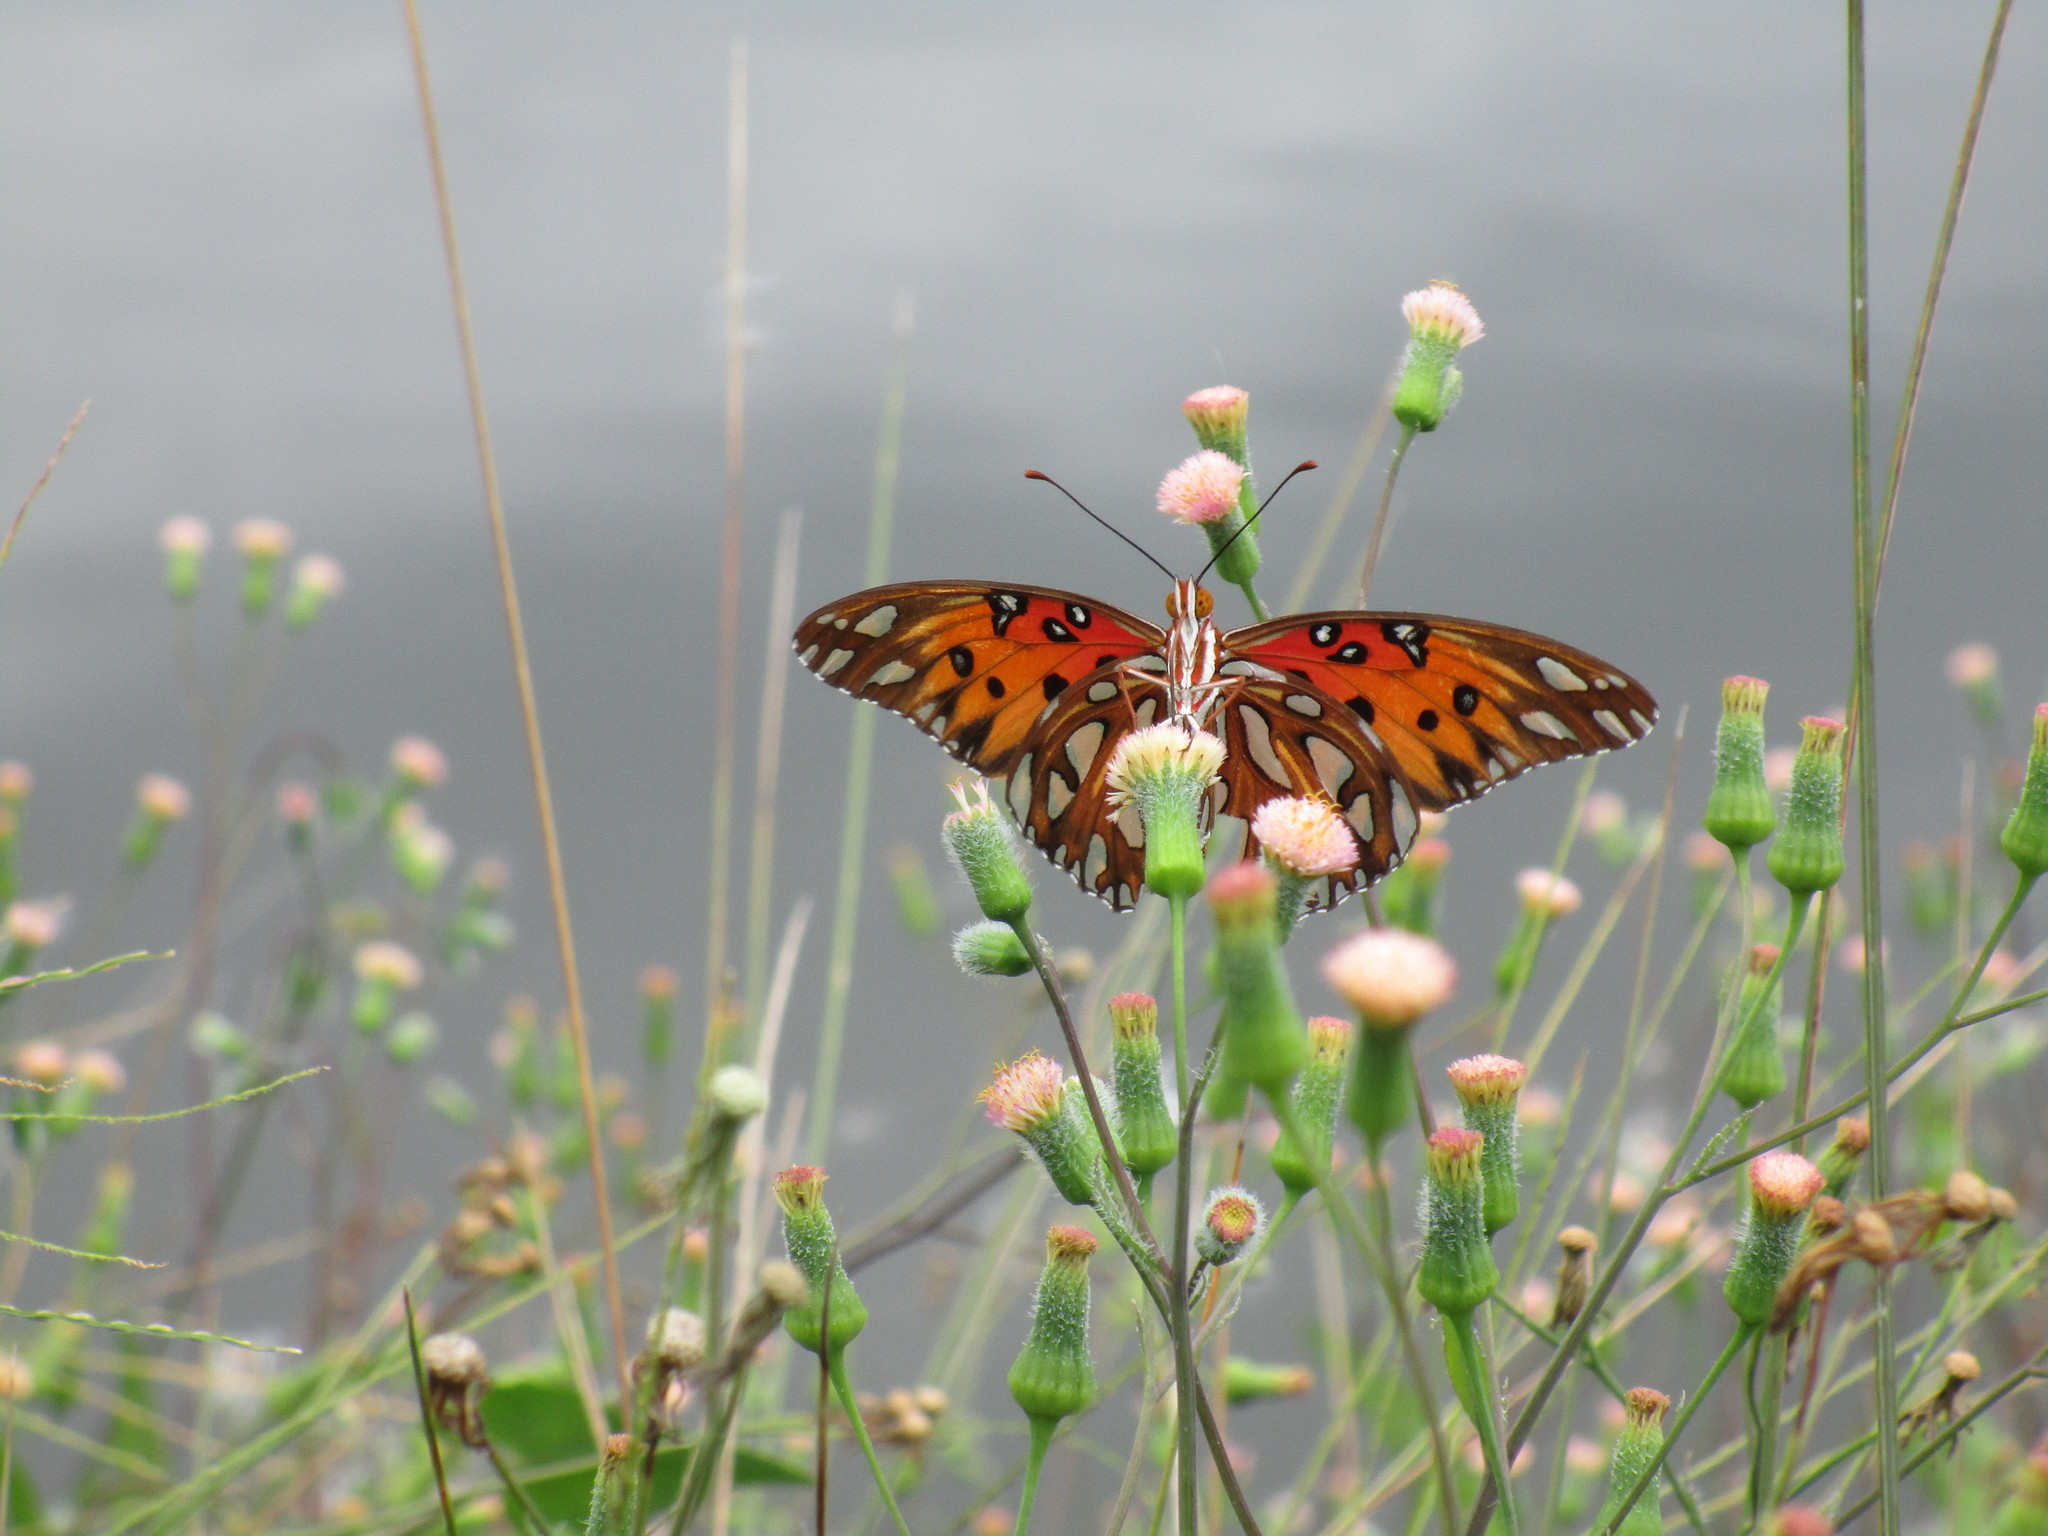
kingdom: Animalia
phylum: Arthropoda
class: Insecta
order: Lepidoptera
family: Nymphalidae
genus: Dione
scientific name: Dione vanillae
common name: Gulf fritillary
